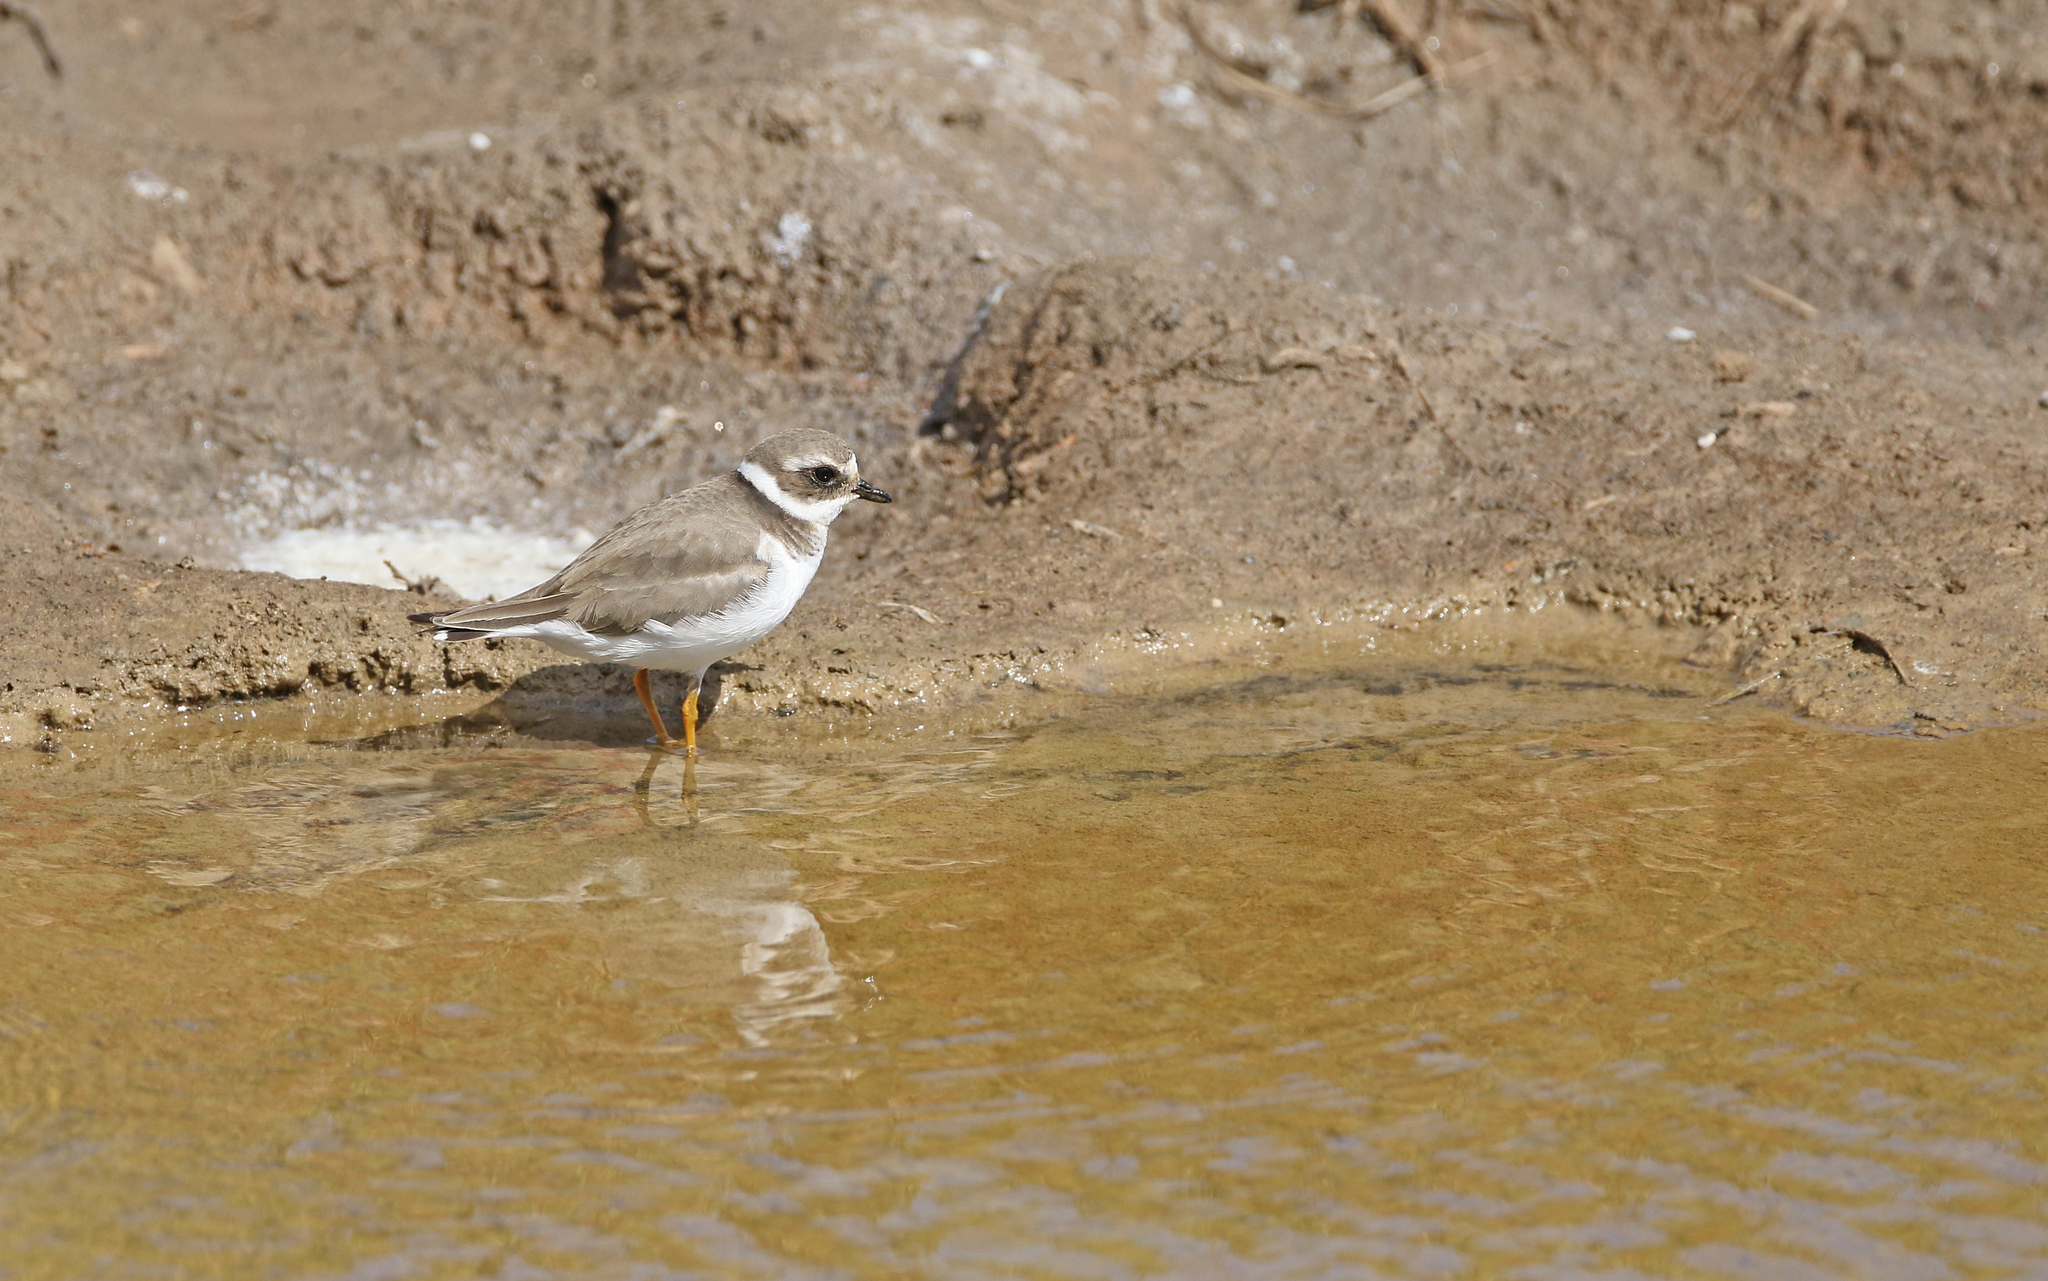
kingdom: Animalia
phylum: Chordata
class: Aves
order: Charadriiformes
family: Charadriidae
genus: Charadrius
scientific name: Charadrius hiaticula
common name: Common ringed plover
